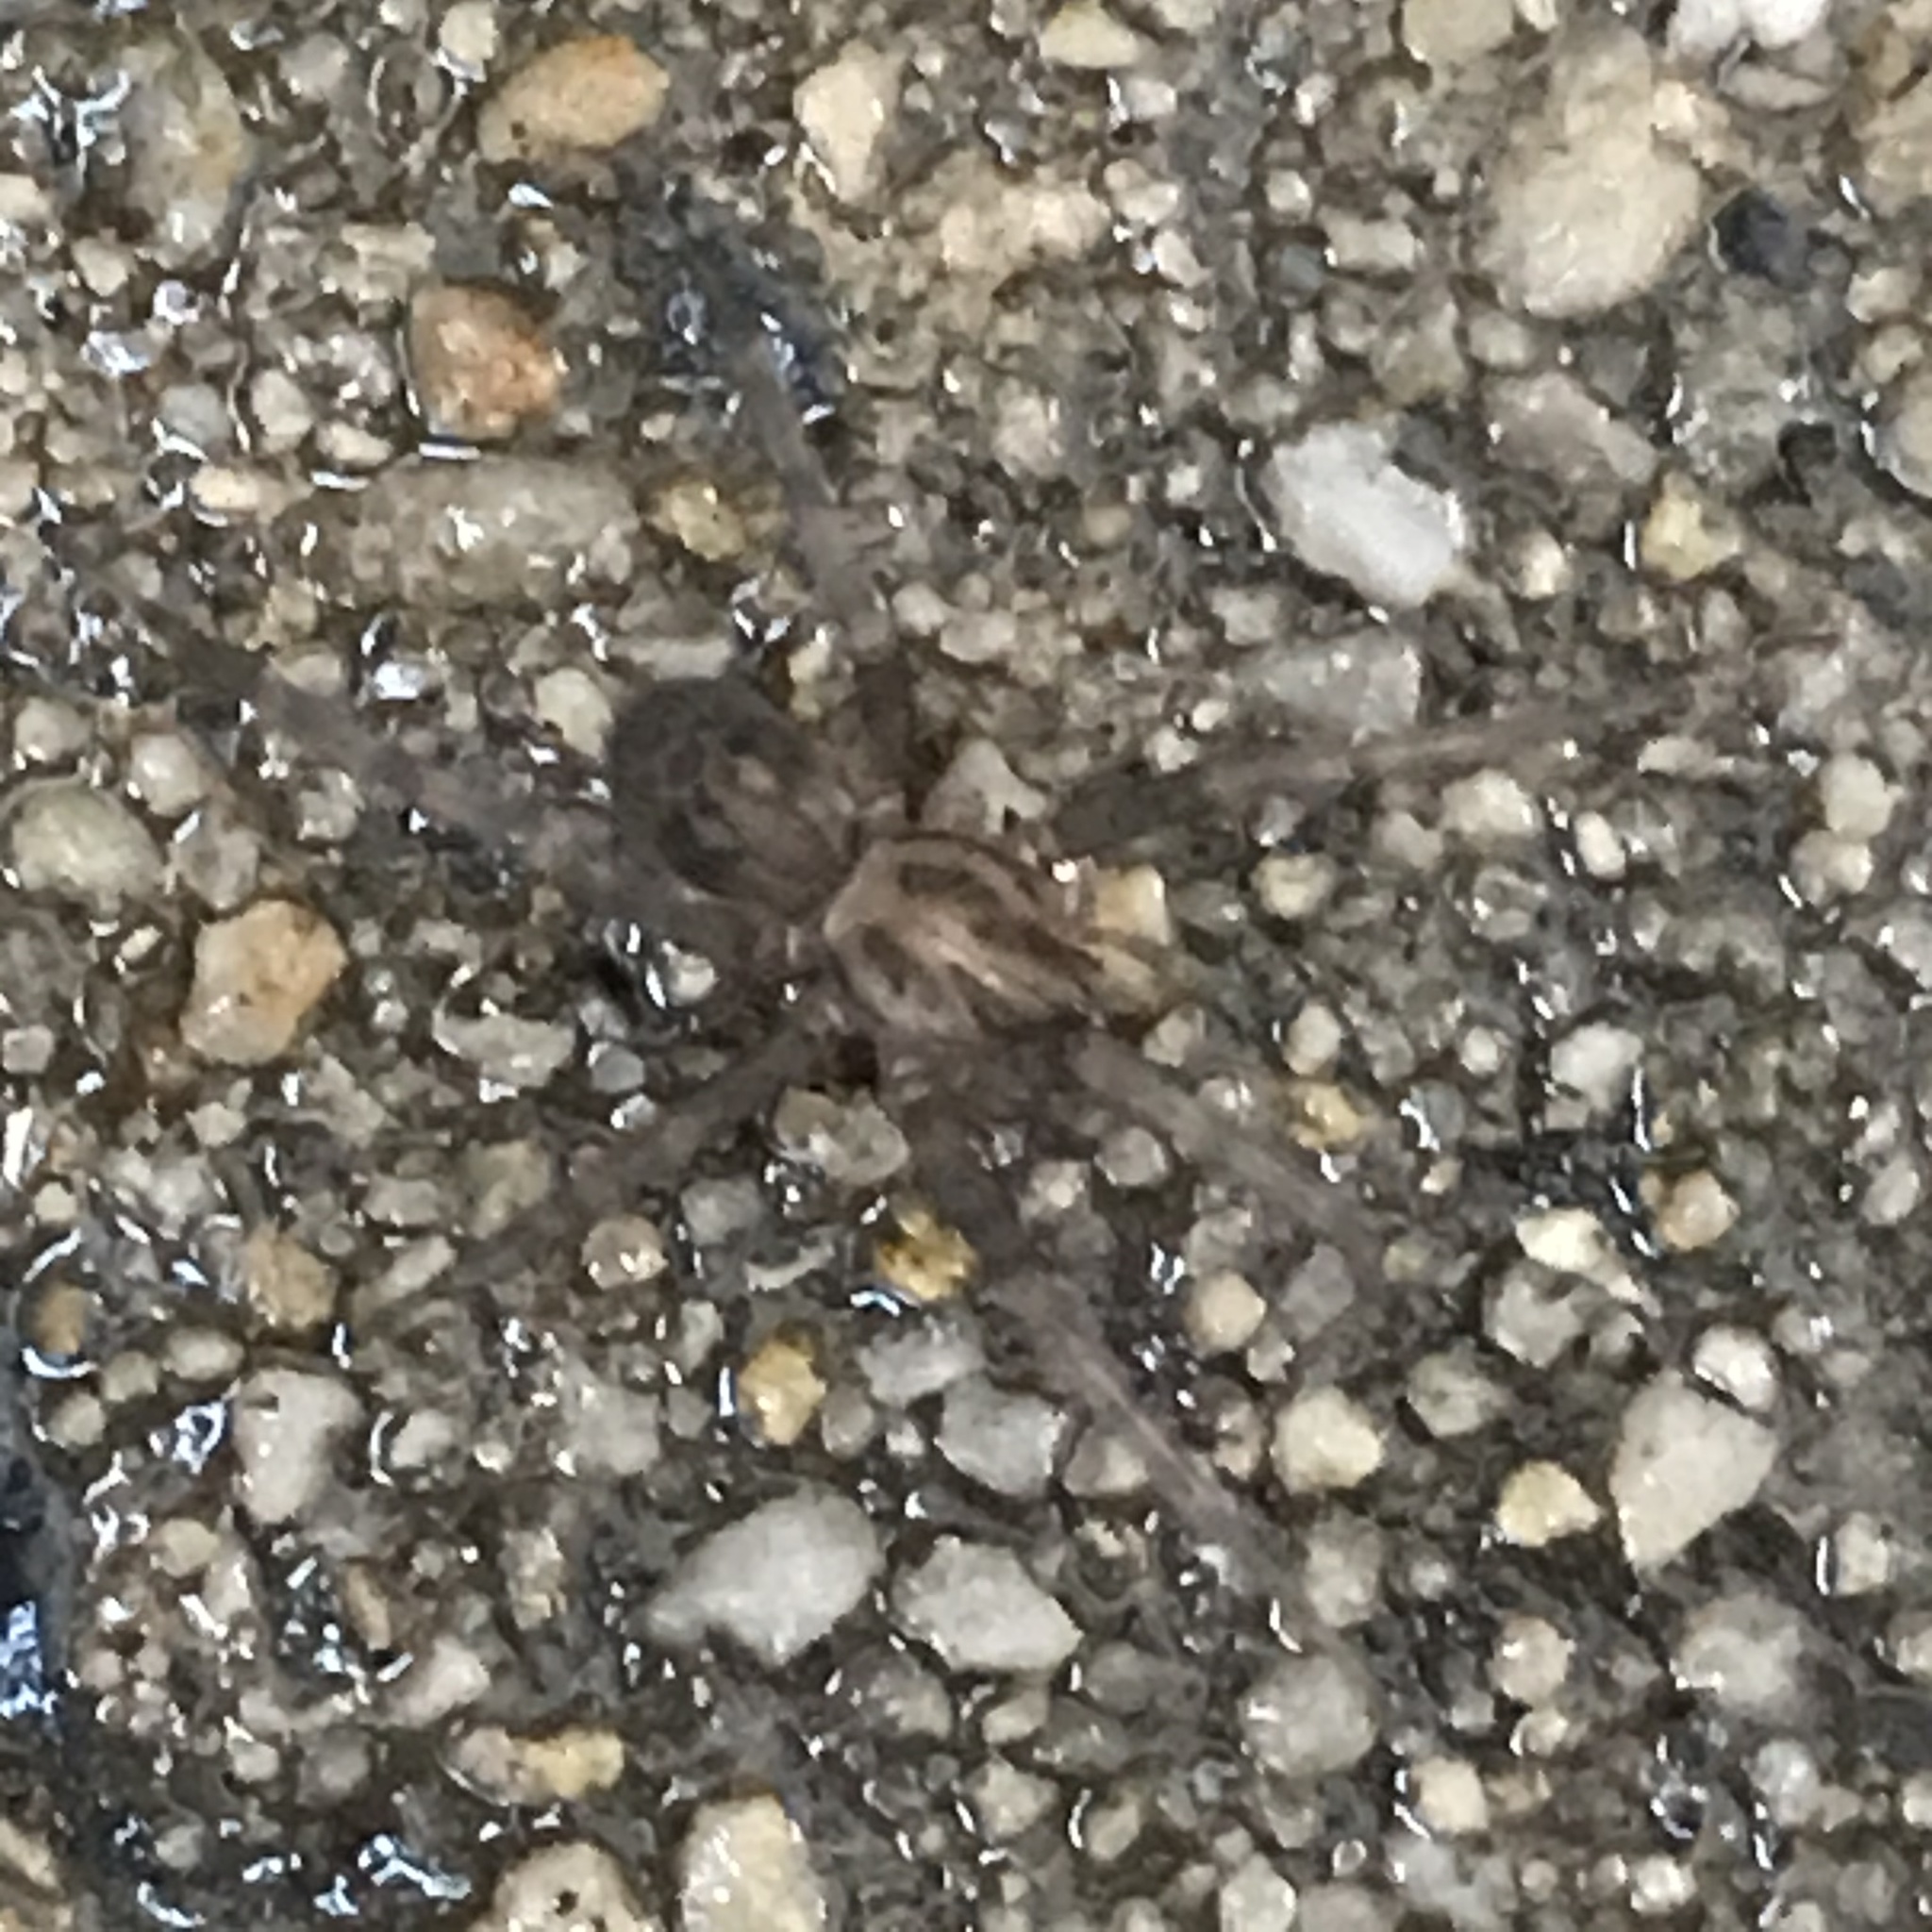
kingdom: Animalia
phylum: Arthropoda
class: Arachnida
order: Araneae
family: Agelenidae
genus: Tegenaria
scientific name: Tegenaria domestica
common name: Barn funnel weaver
